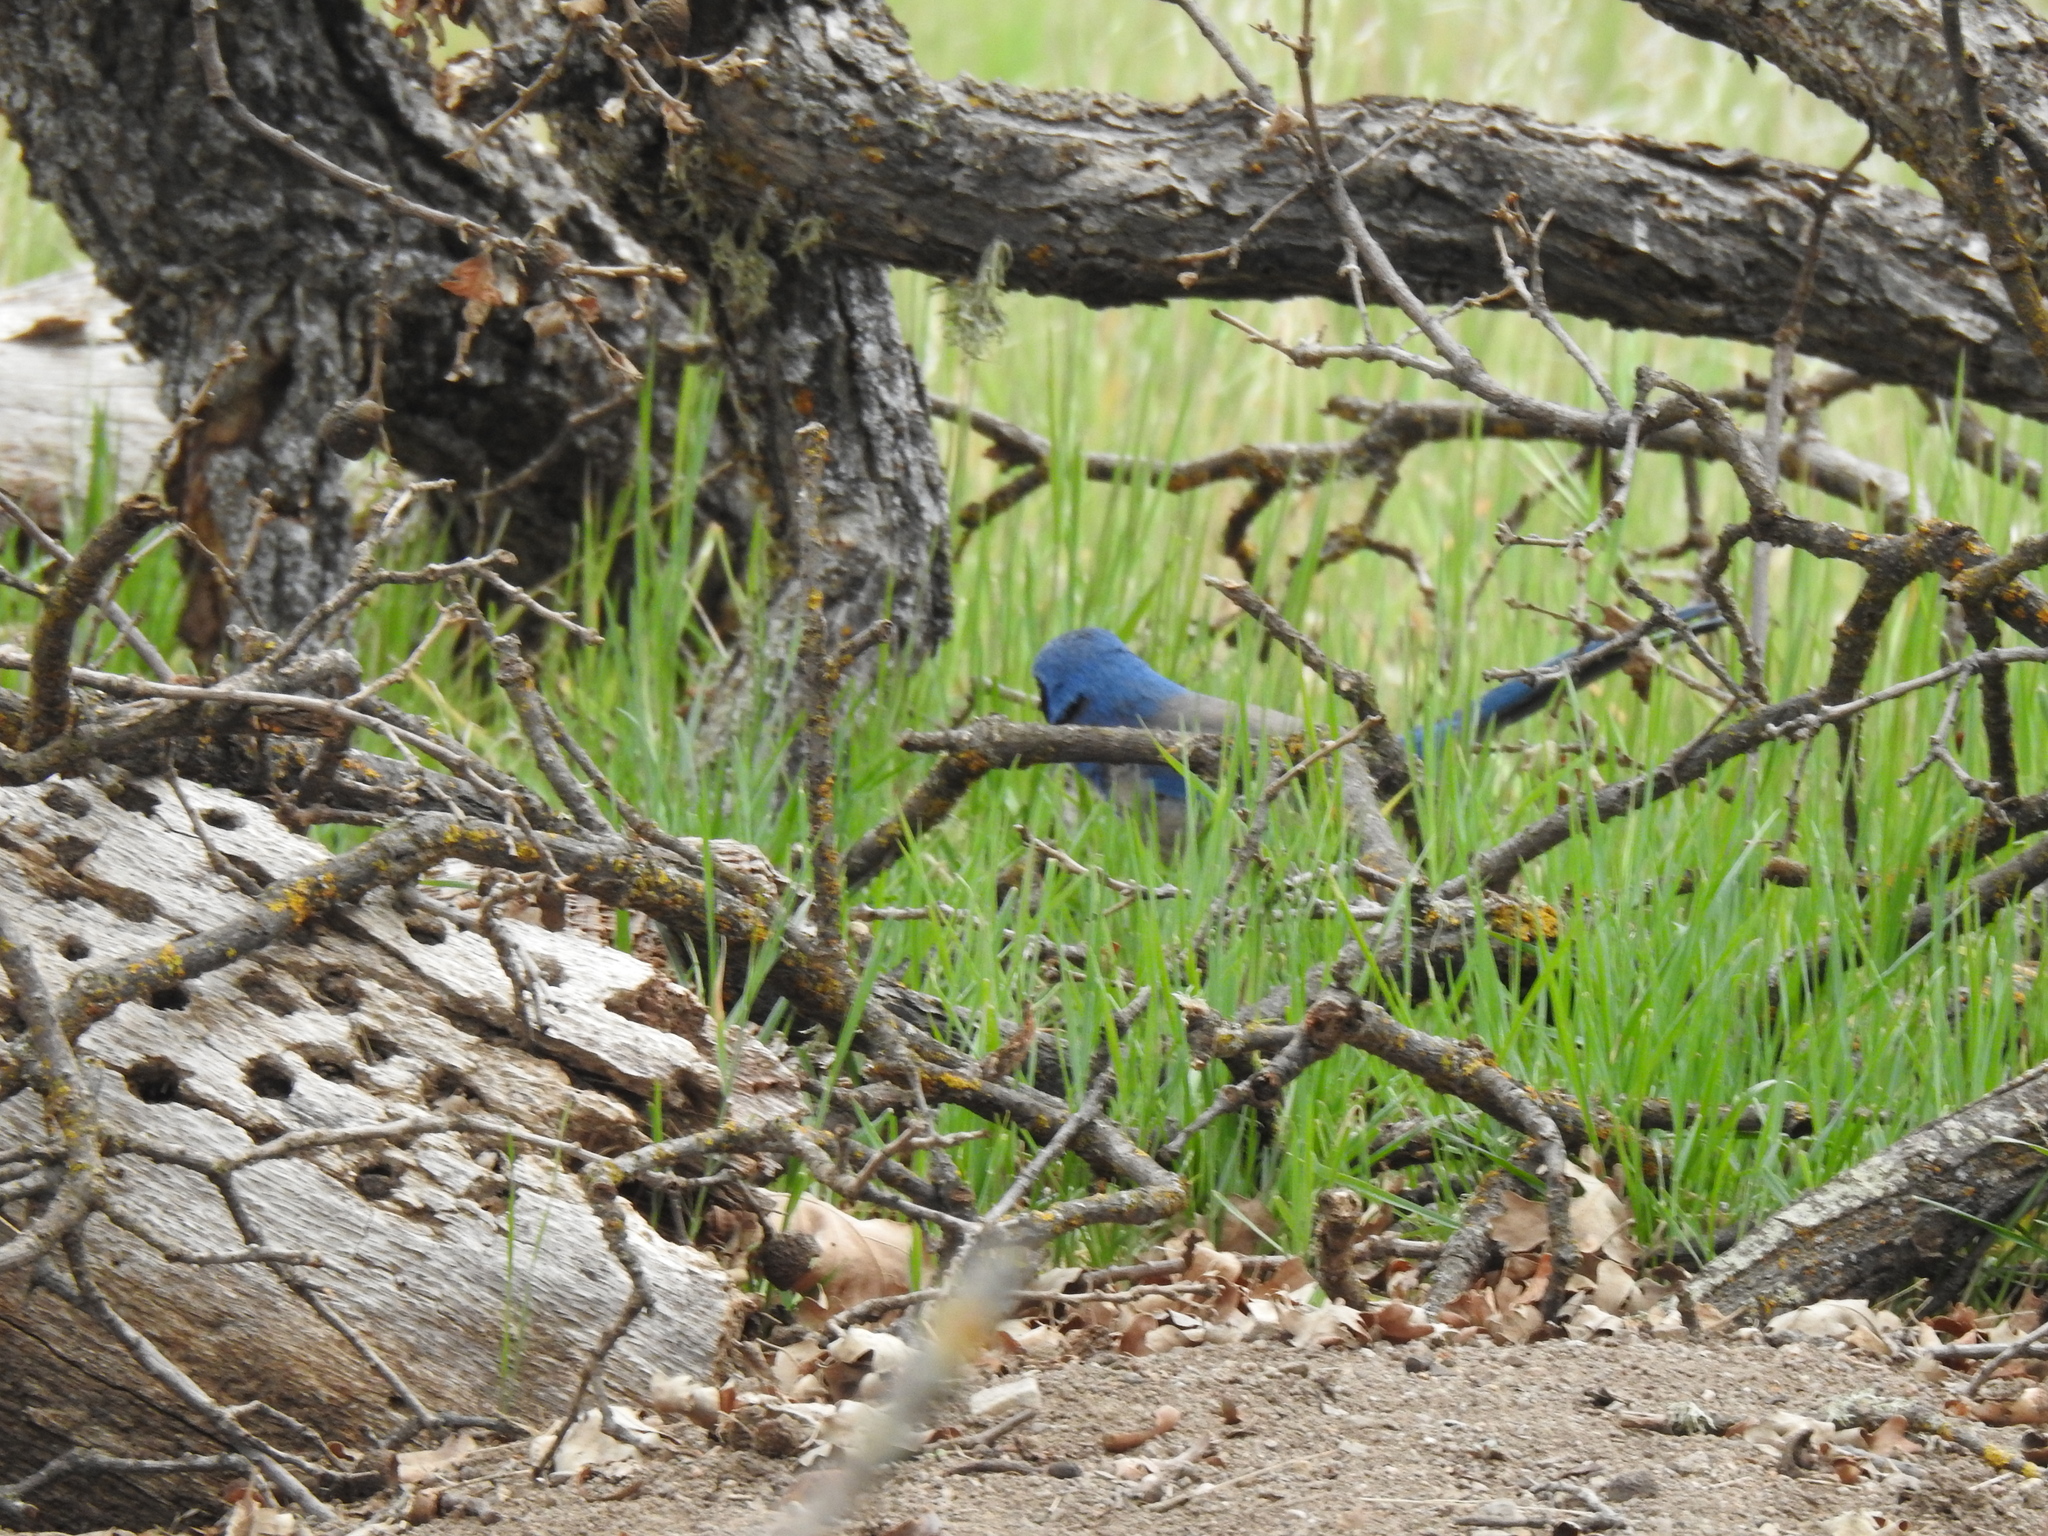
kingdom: Animalia
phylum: Chordata
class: Aves
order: Passeriformes
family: Corvidae
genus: Aphelocoma
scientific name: Aphelocoma californica
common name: California scrub-jay
